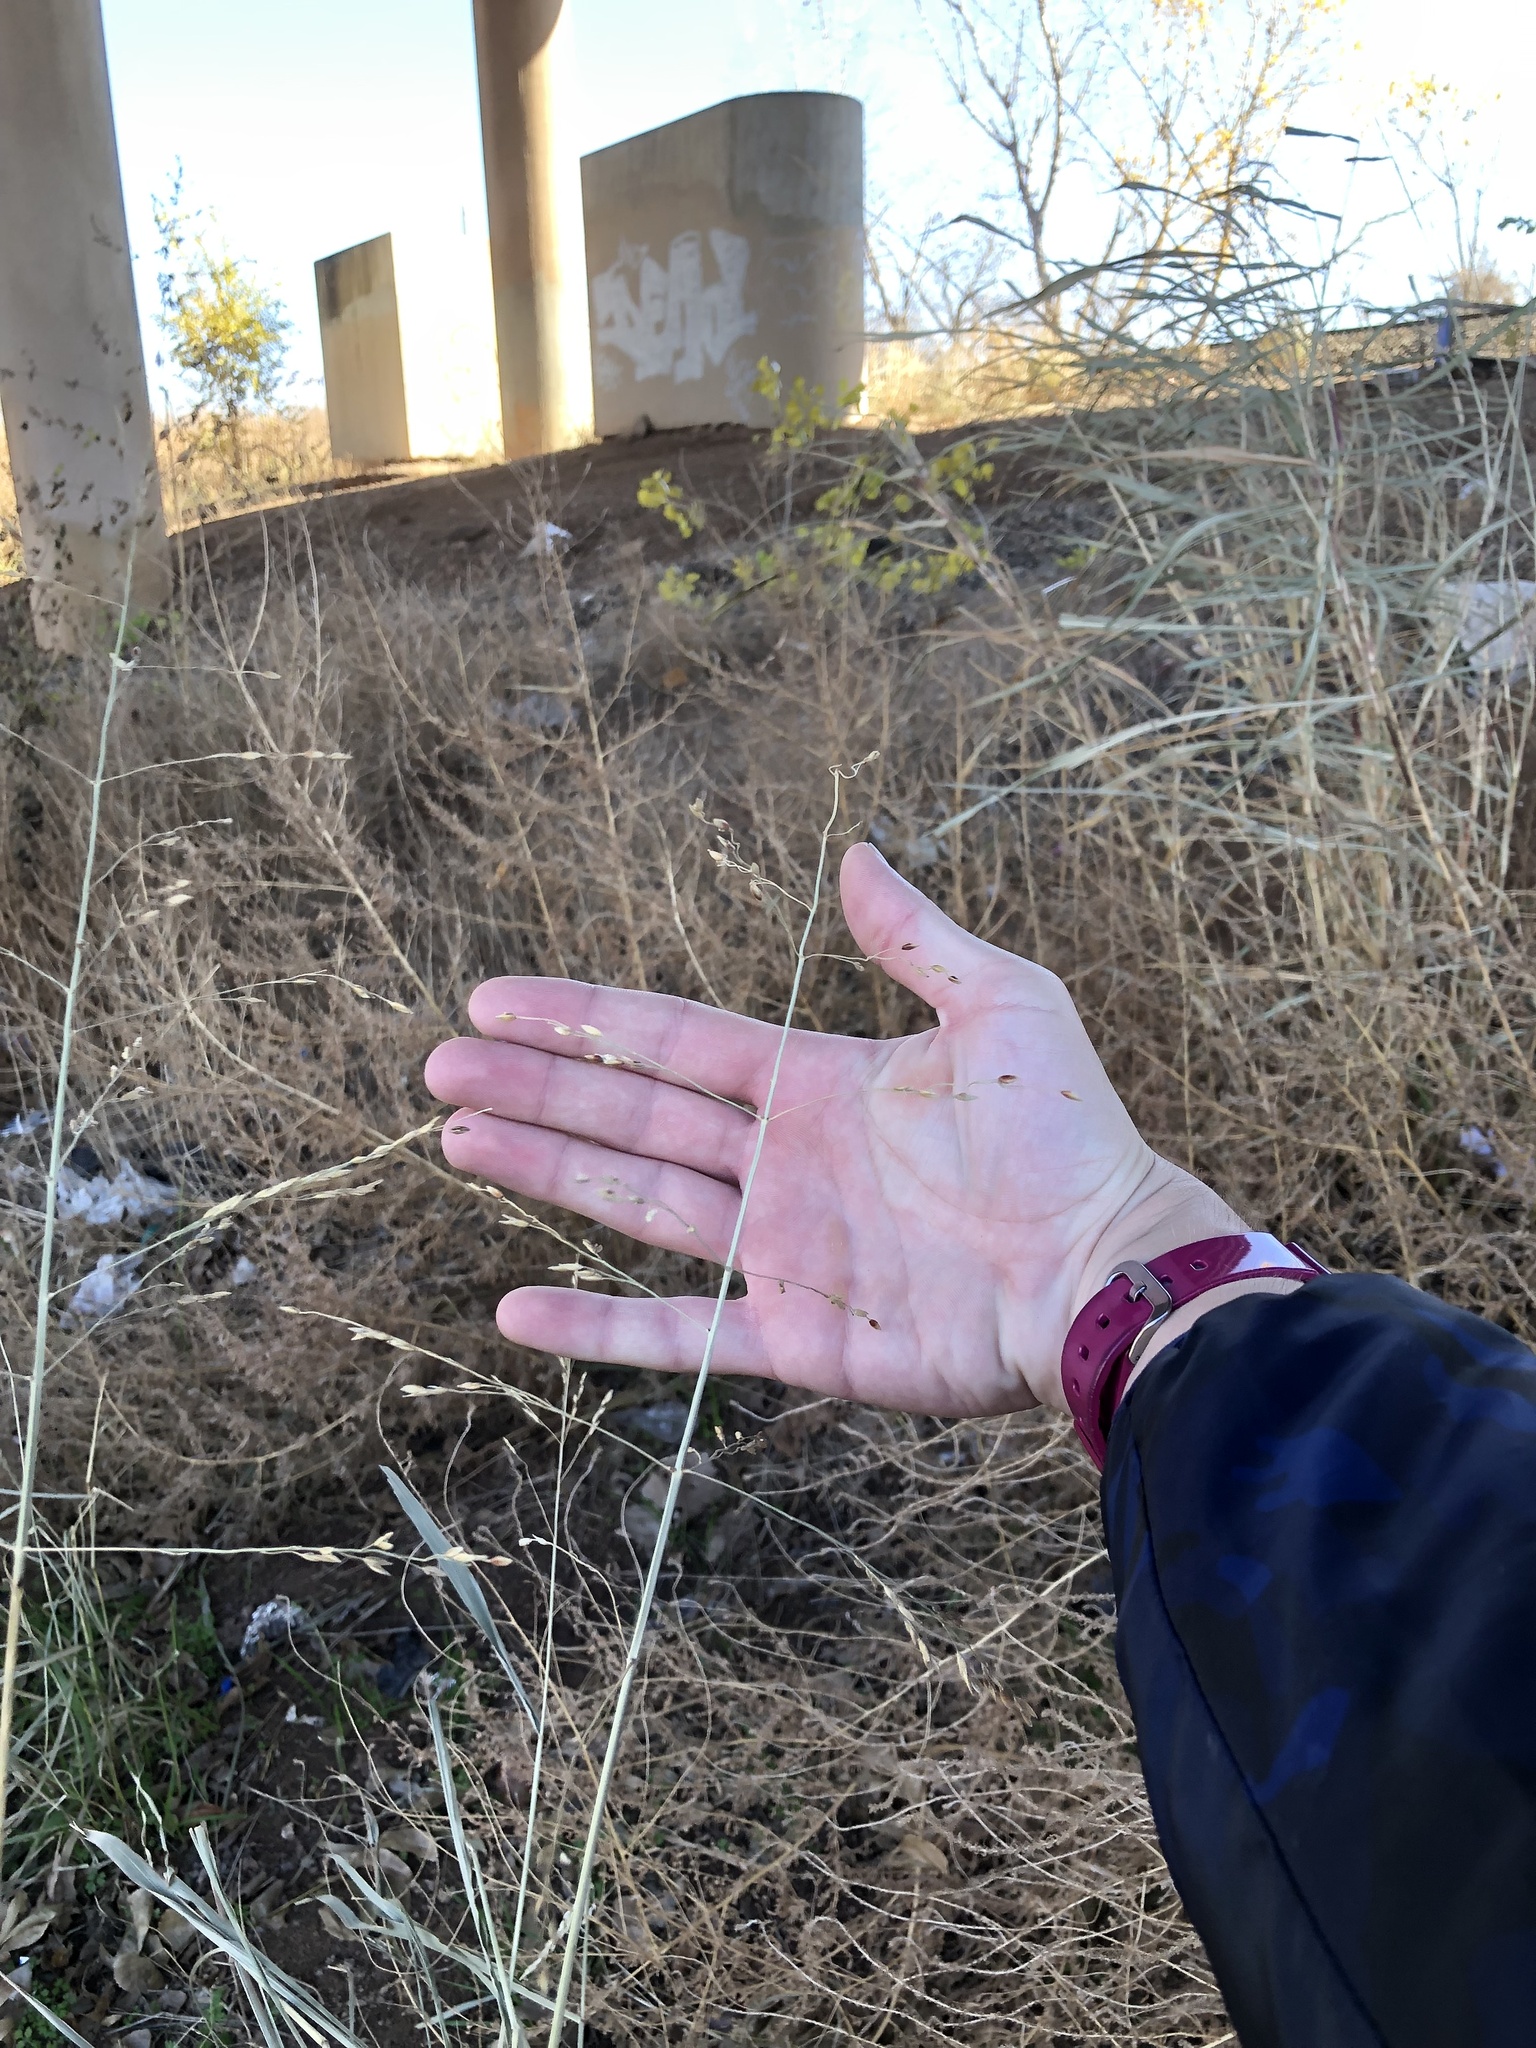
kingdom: Plantae
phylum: Tracheophyta
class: Liliopsida
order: Poales
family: Poaceae
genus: Sorghum
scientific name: Sorghum halepense
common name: Johnson-grass
